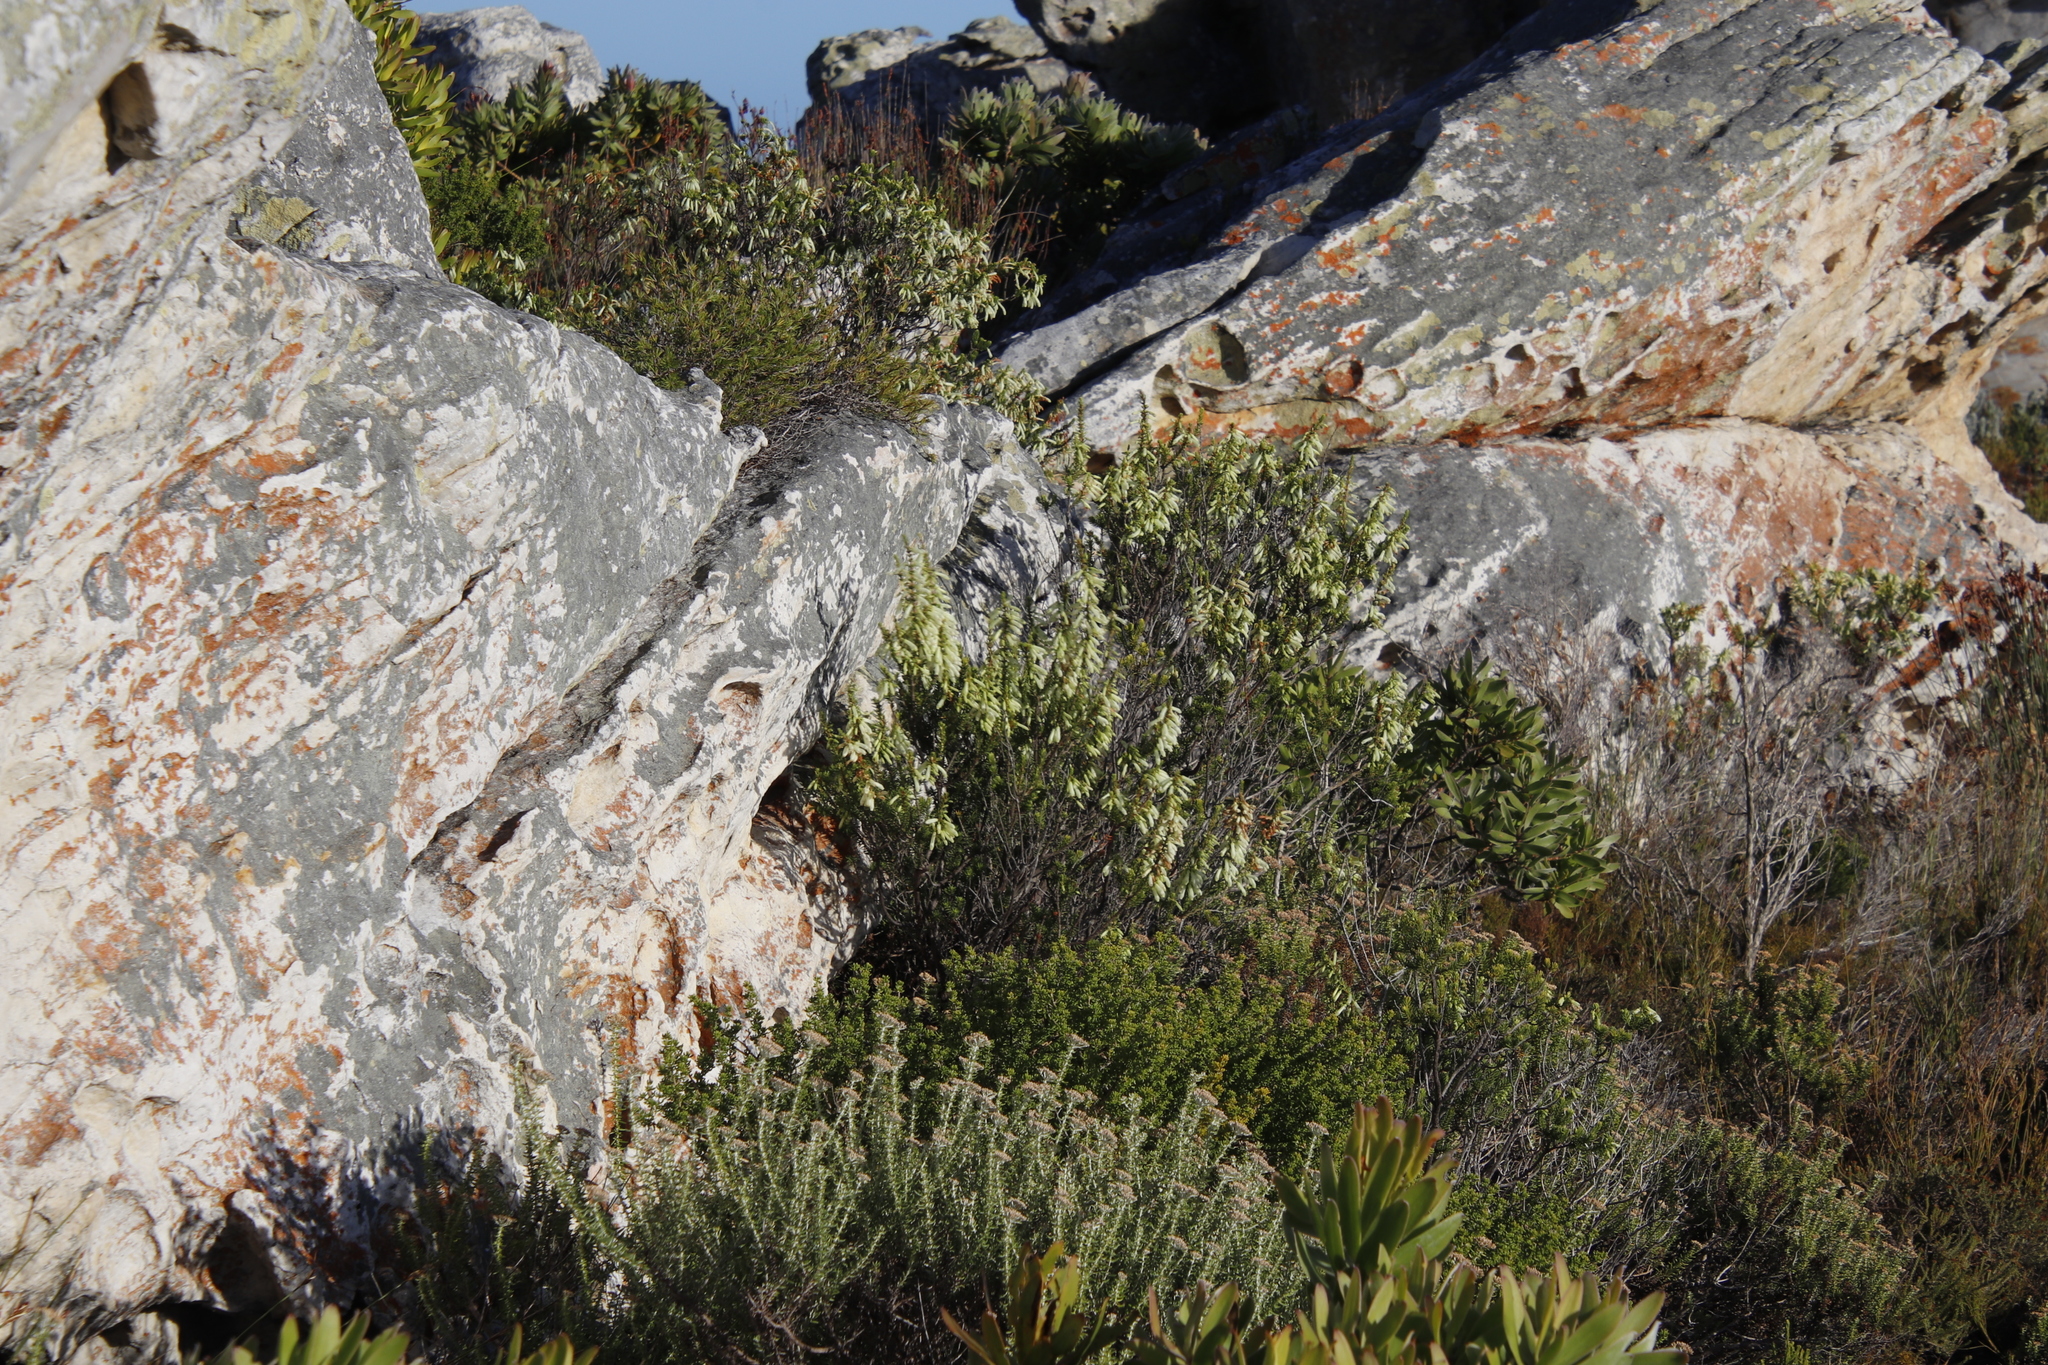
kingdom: Plantae
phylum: Tracheophyta
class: Magnoliopsida
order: Ericales
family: Ericaceae
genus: Erica
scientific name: Erica mammosa
